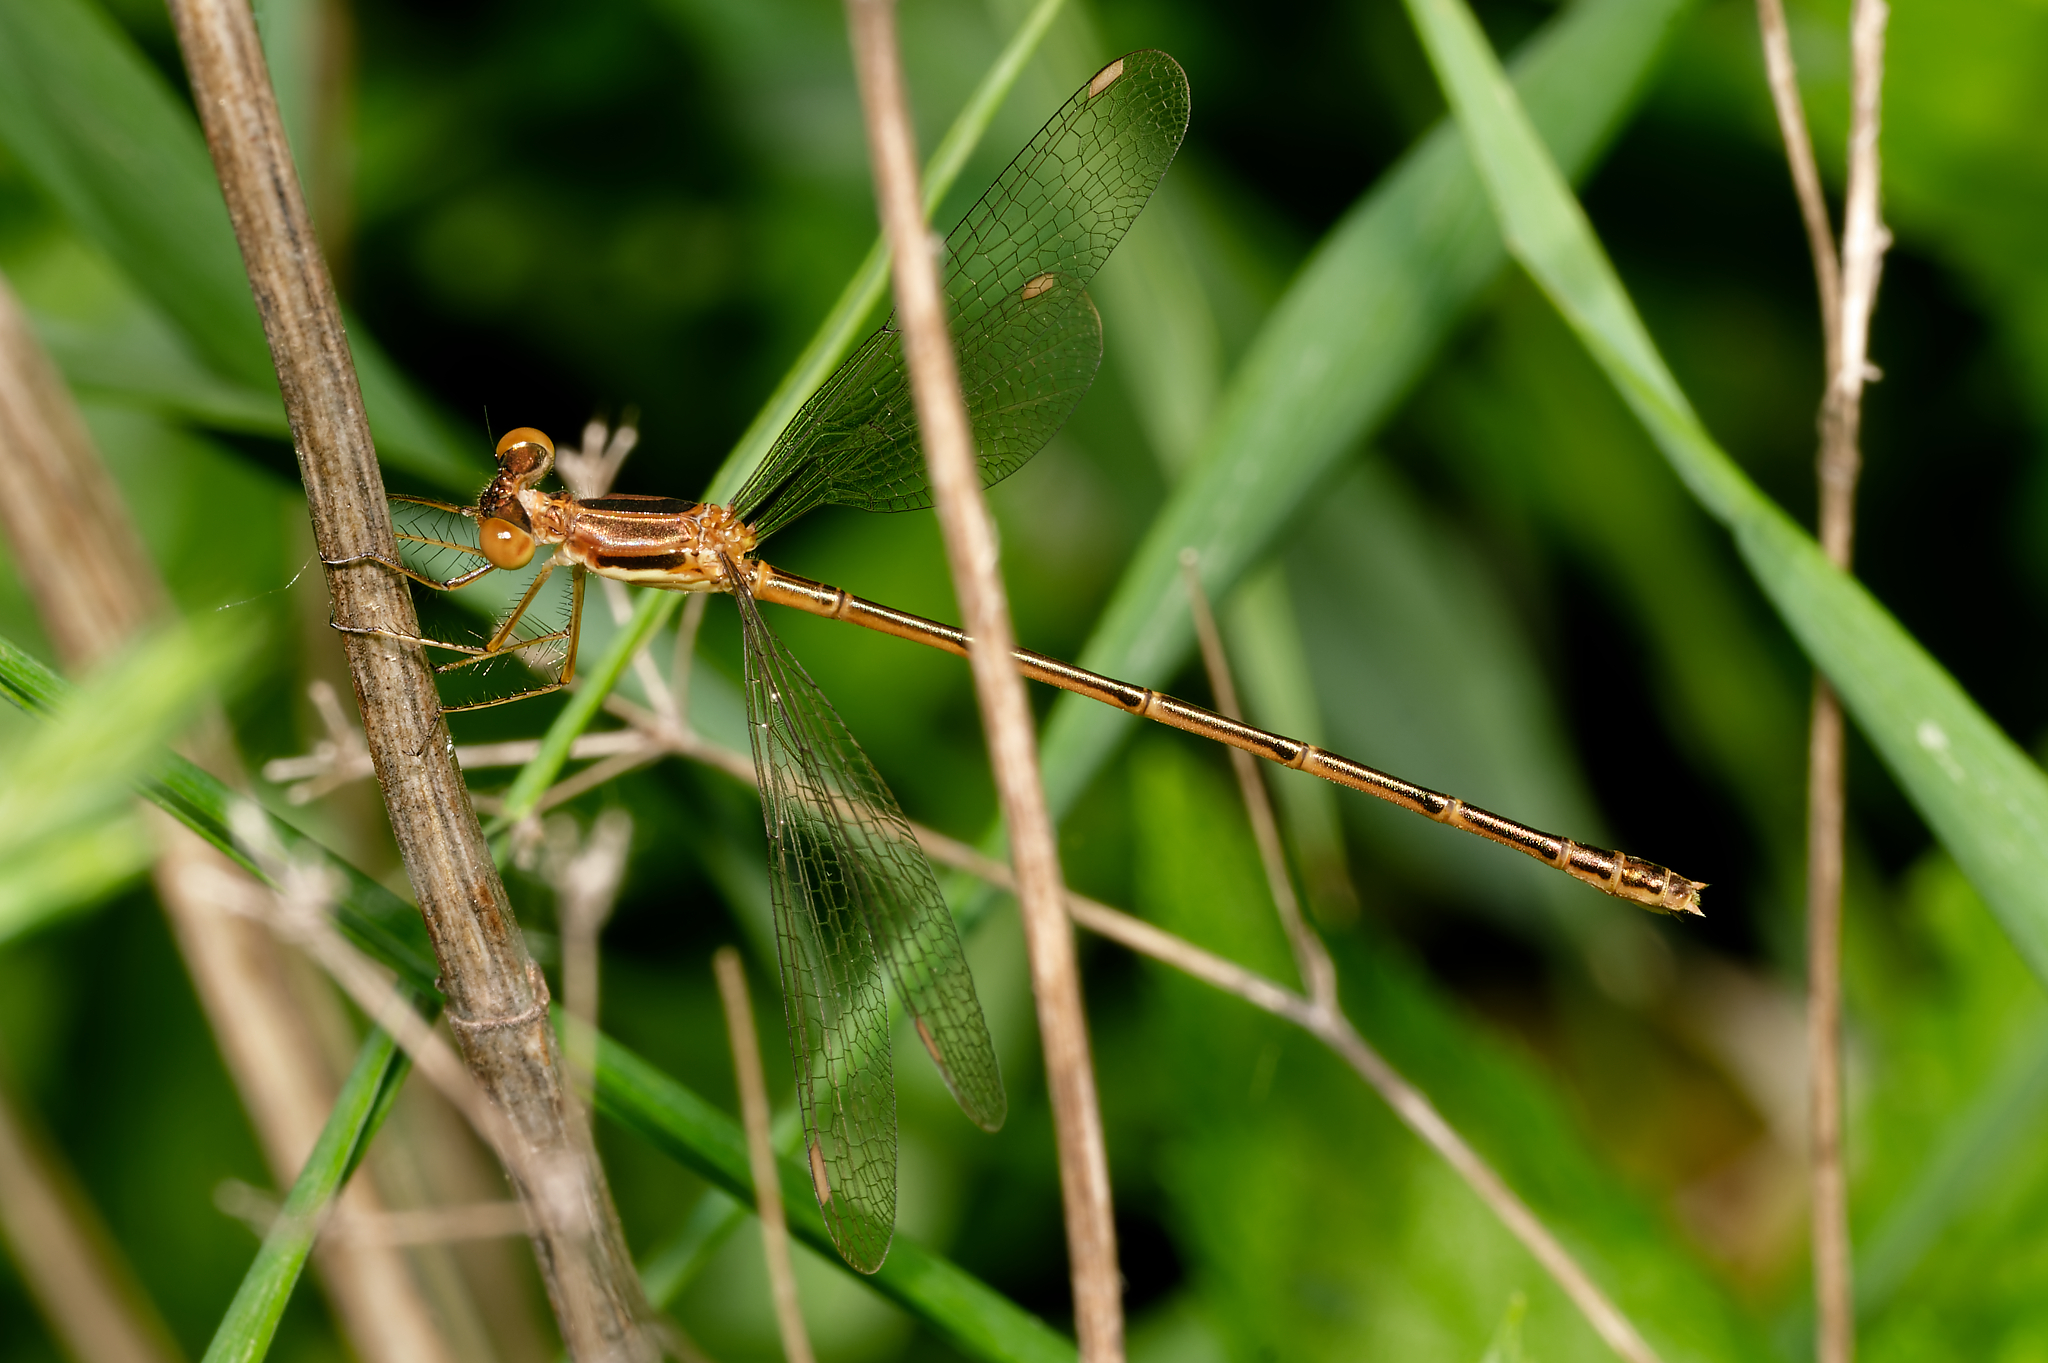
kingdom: Animalia
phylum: Arthropoda
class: Insecta
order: Odonata
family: Lestidae
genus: Lestes
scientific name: Lestes rectangularis
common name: Slender spreadwing
